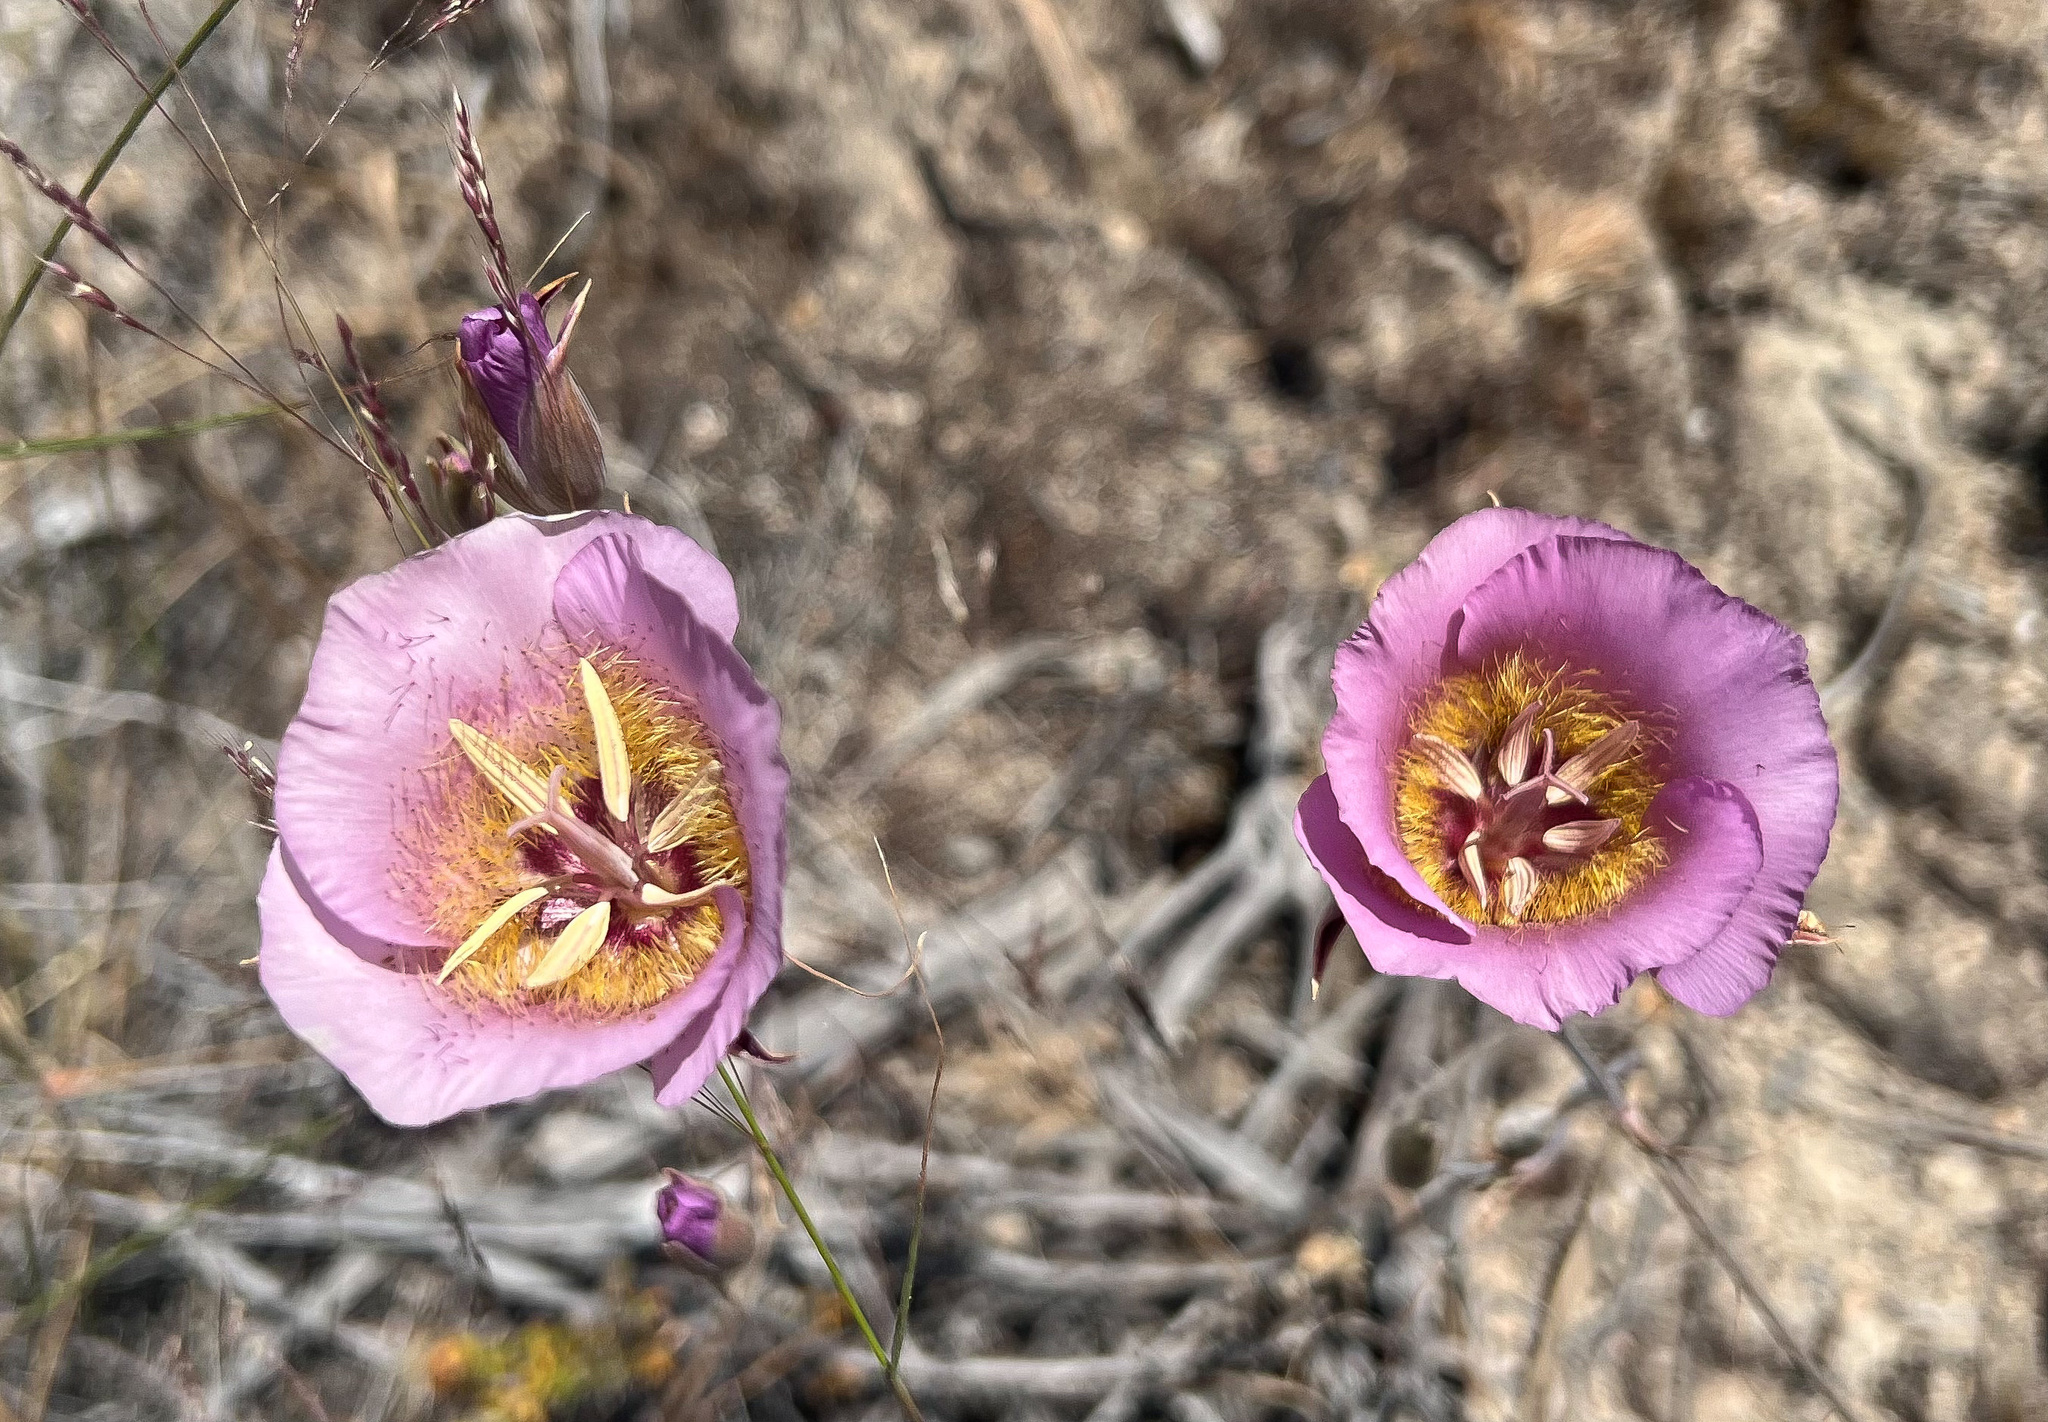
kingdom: Plantae
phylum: Tracheophyta
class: Liliopsida
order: Liliales
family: Liliaceae
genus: Calochortus
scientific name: Calochortus plummerae
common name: Plummer's mariposa-lily
